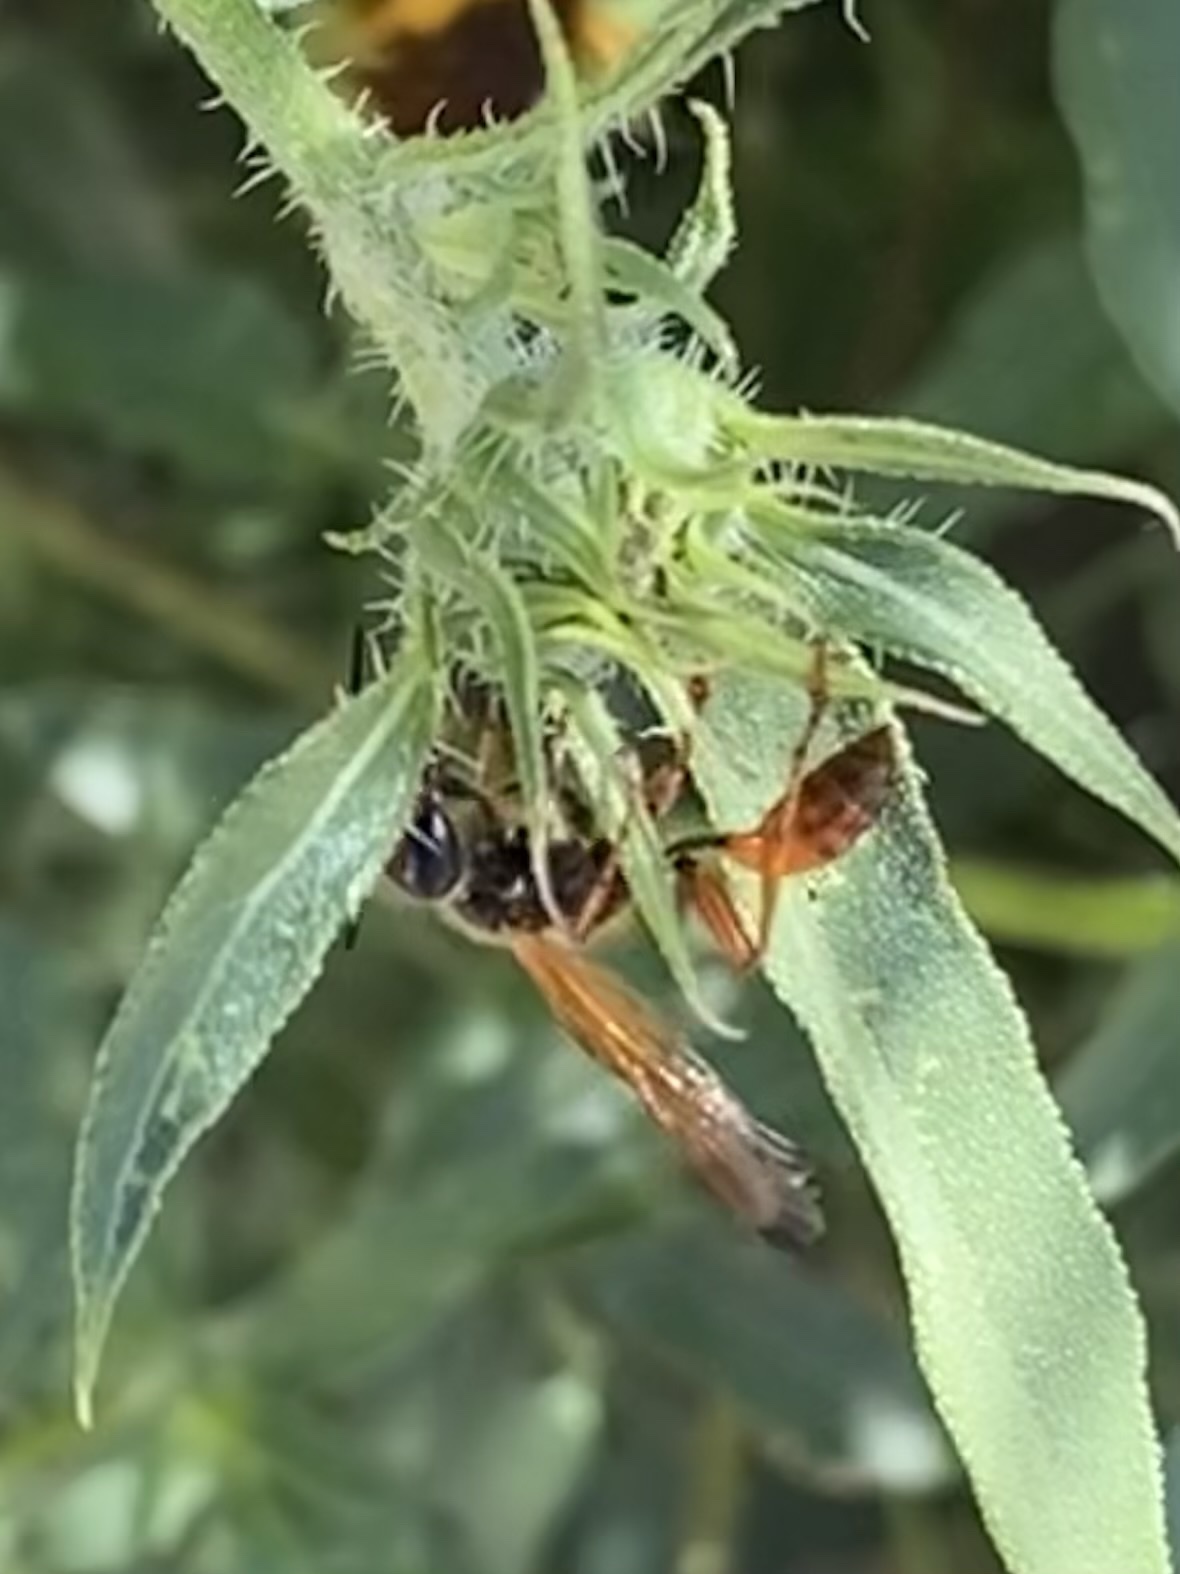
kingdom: Animalia
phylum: Arthropoda
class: Insecta
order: Hymenoptera
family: Sphecidae
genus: Isodontia
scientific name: Isodontia elegans
